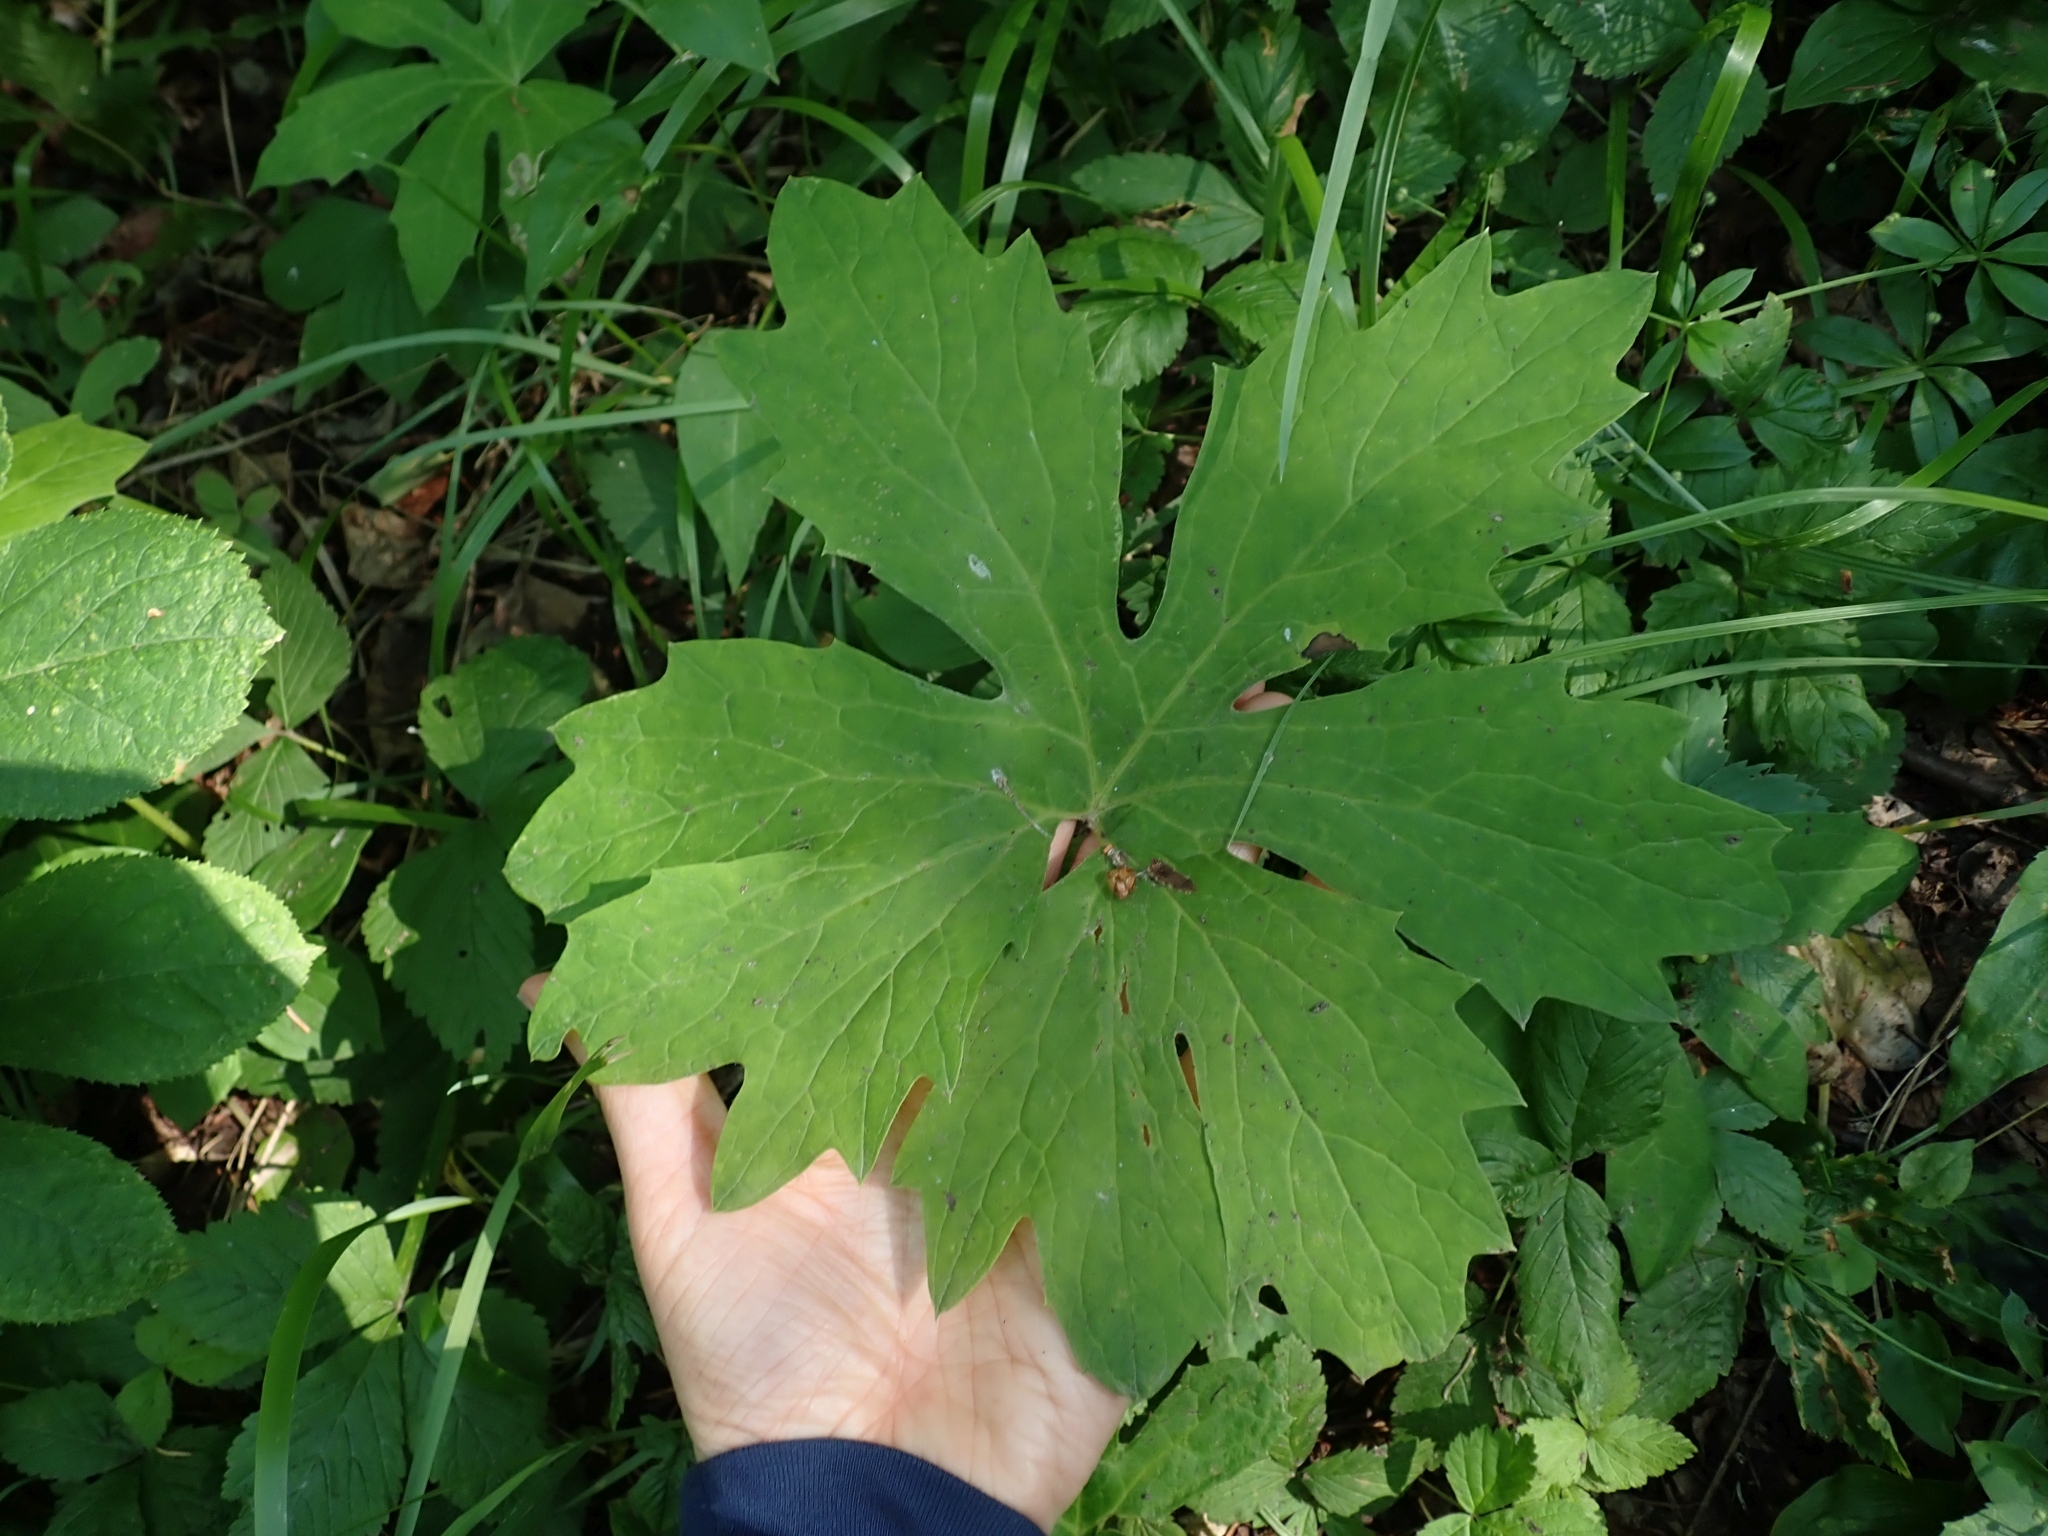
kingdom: Plantae
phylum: Tracheophyta
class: Magnoliopsida
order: Asterales
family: Asteraceae
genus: Petasites
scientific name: Petasites frigidus
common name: Arctic butterbur
